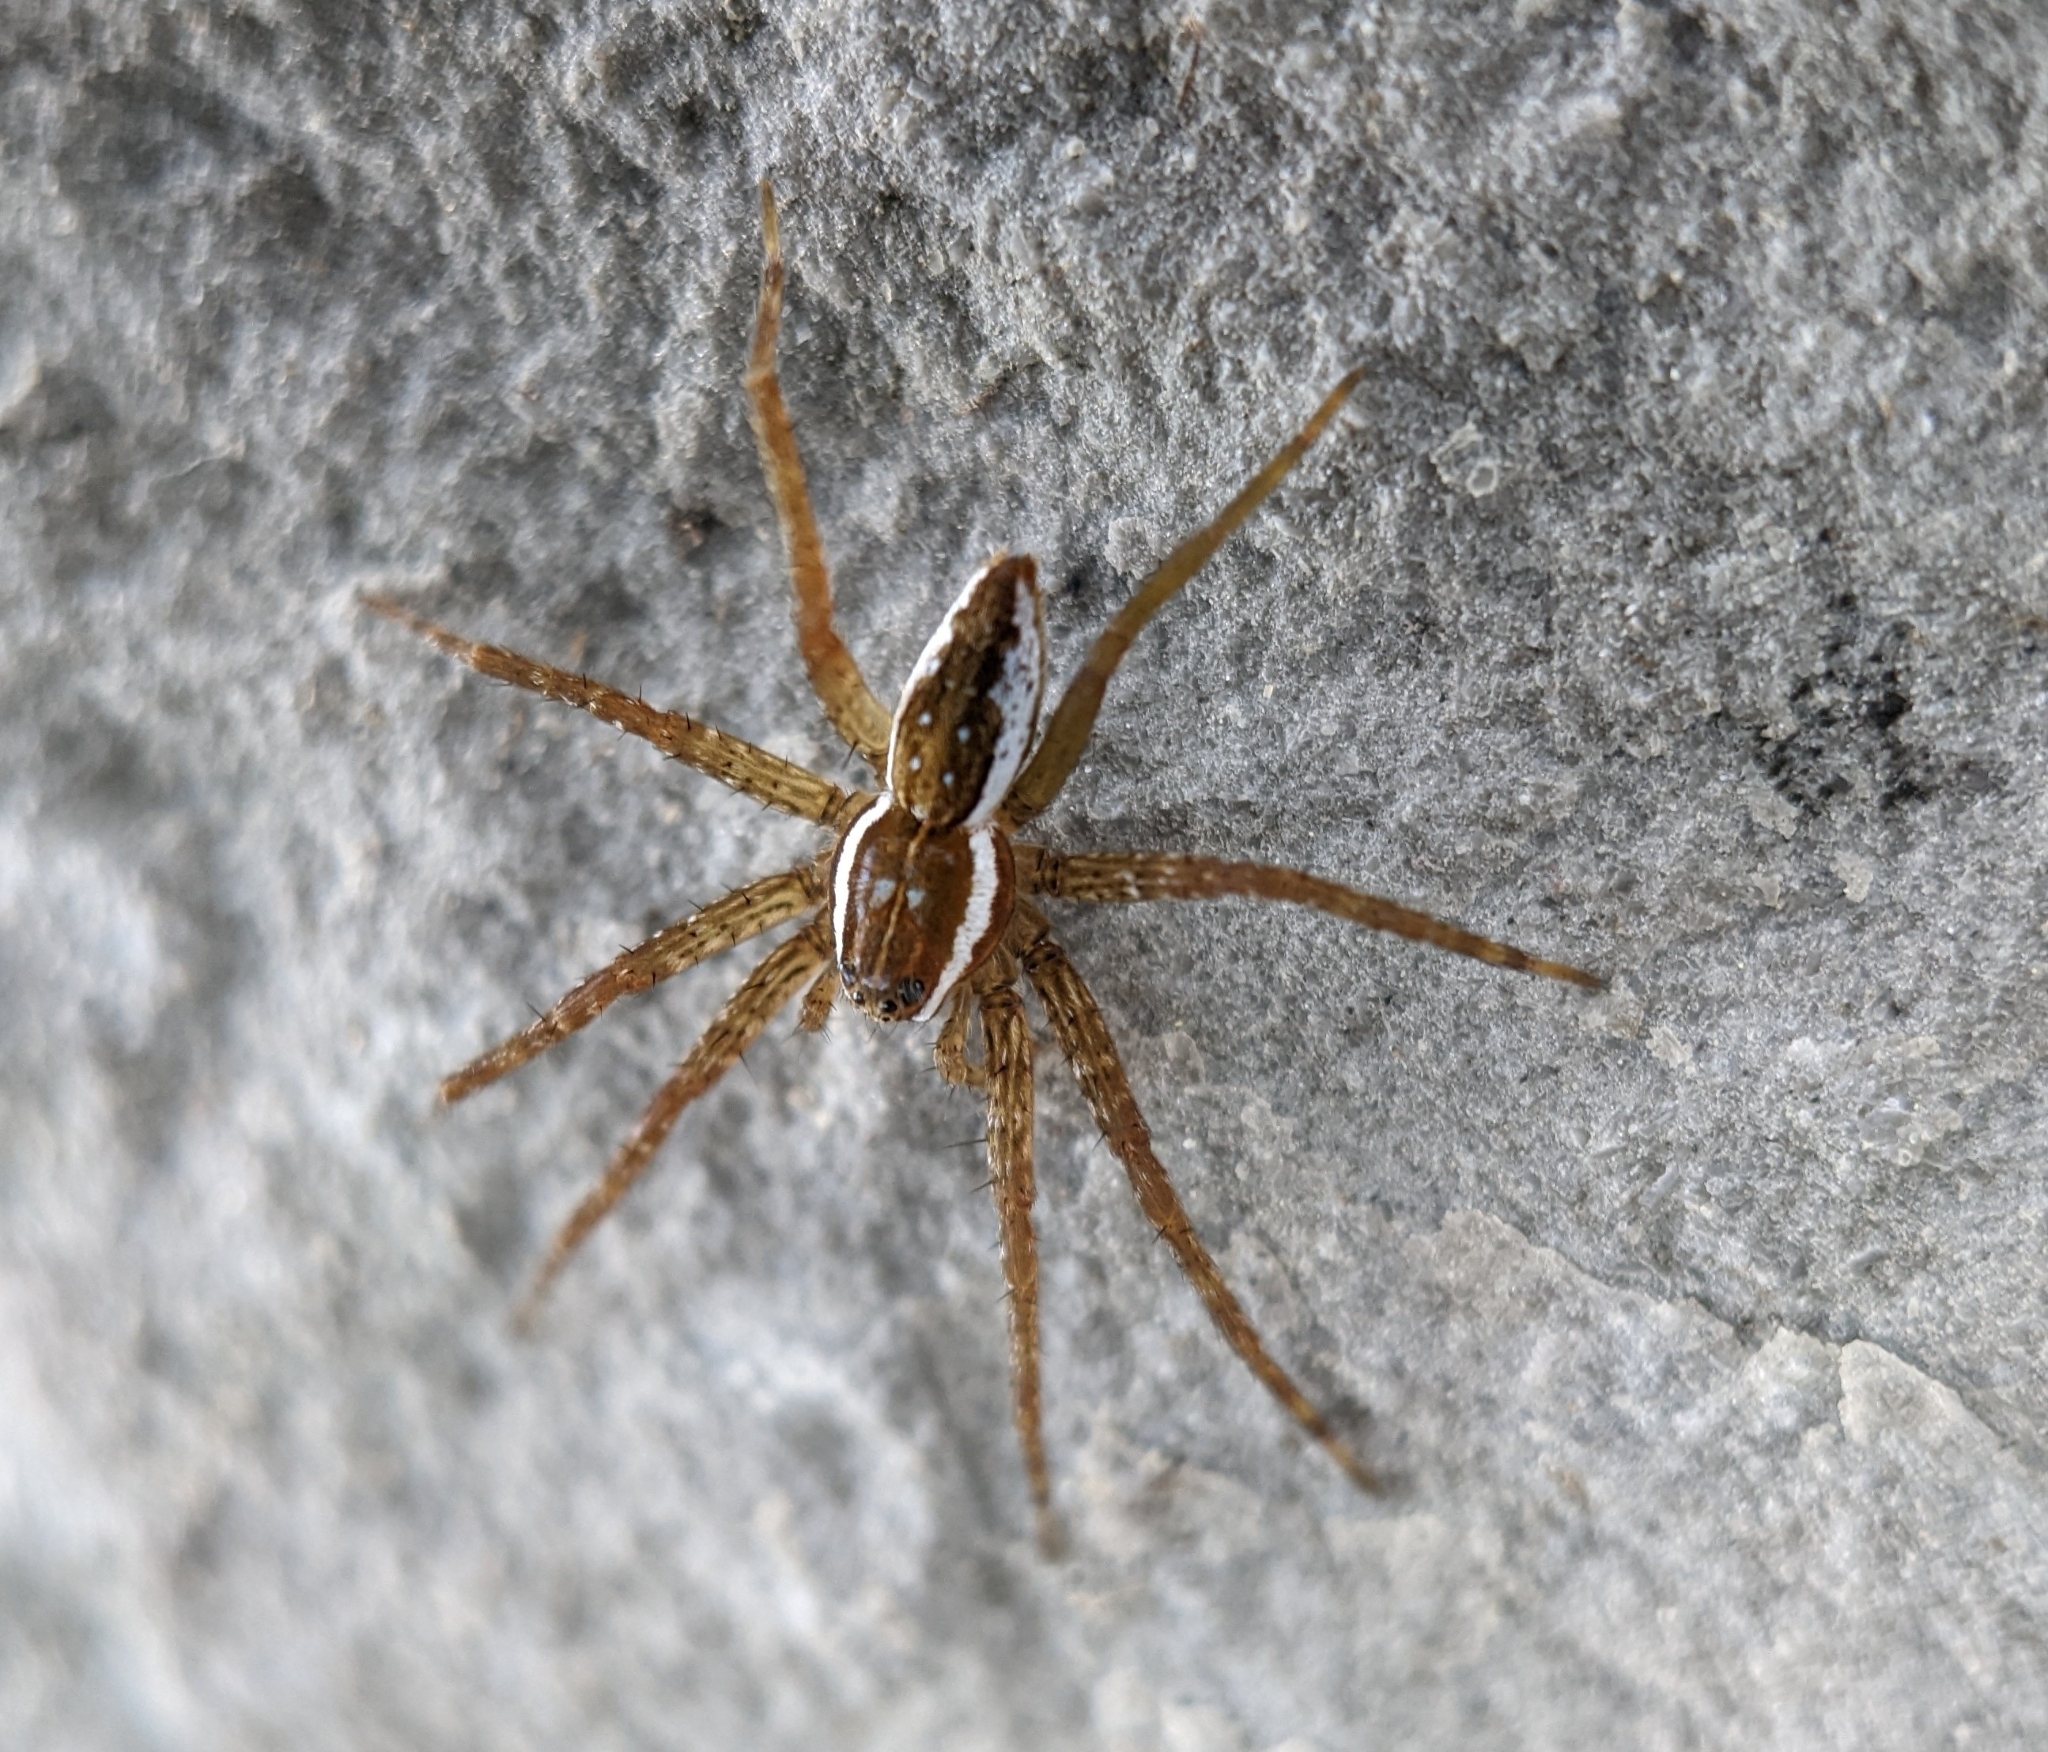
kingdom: Animalia
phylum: Arthropoda
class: Arachnida
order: Araneae
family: Pisauridae
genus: Dolomedes
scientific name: Dolomedes triton
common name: Six-spotted fishing spider
